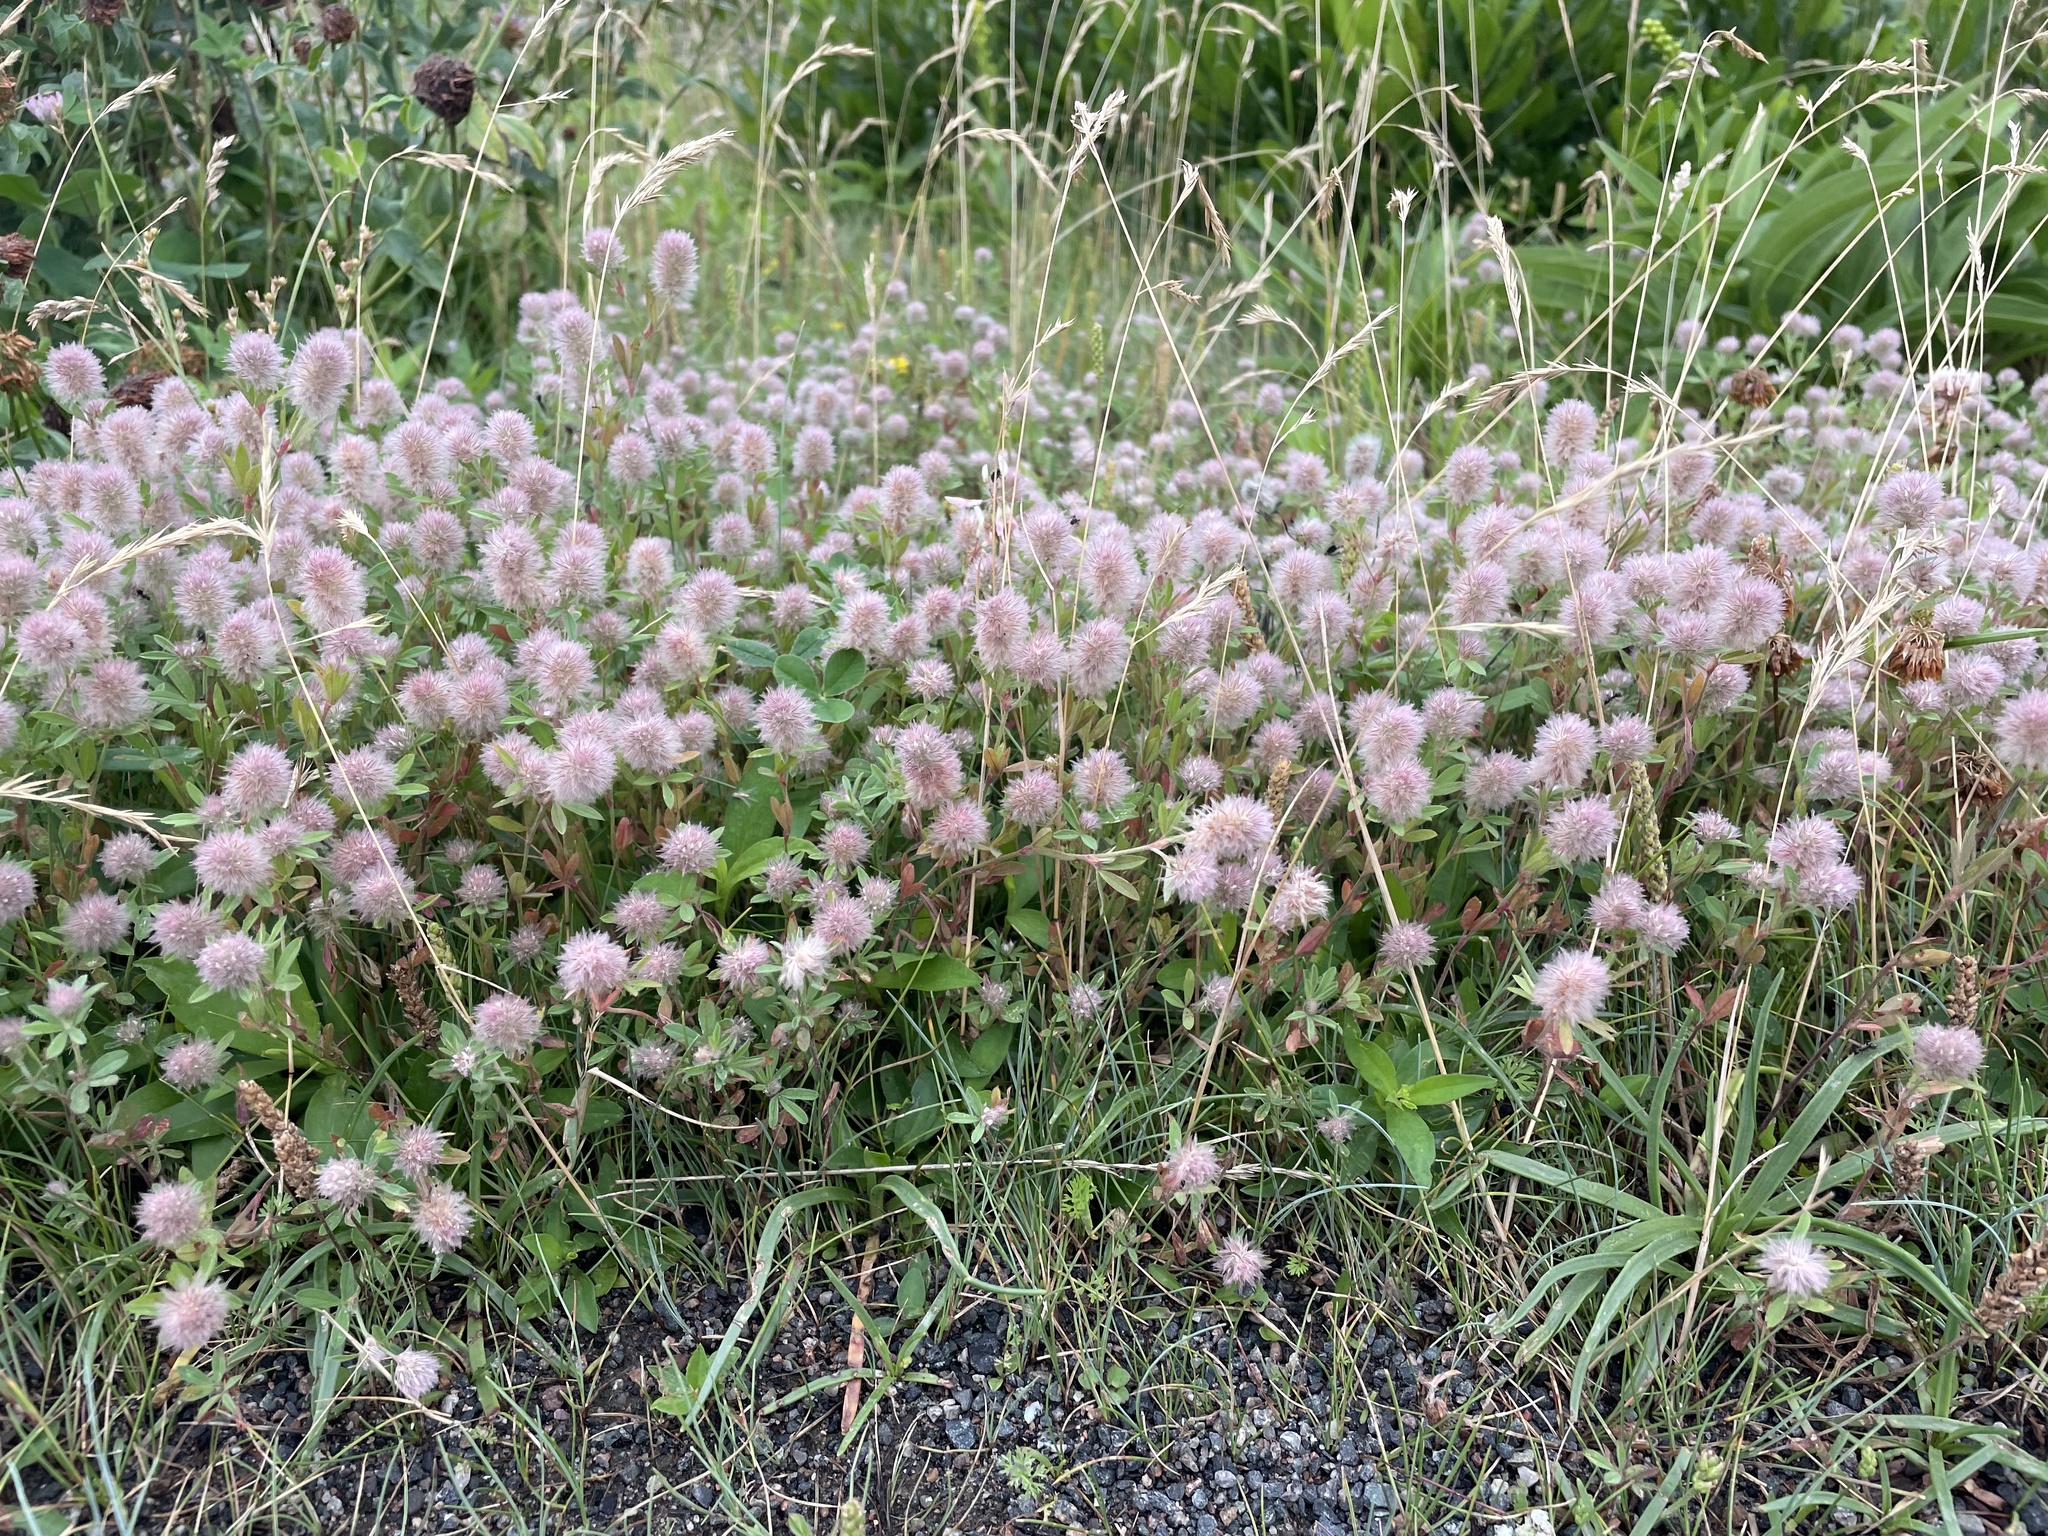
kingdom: Plantae
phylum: Tracheophyta
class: Magnoliopsida
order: Fabales
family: Fabaceae
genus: Trifolium
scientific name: Trifolium arvense
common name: Hare's-foot clover
